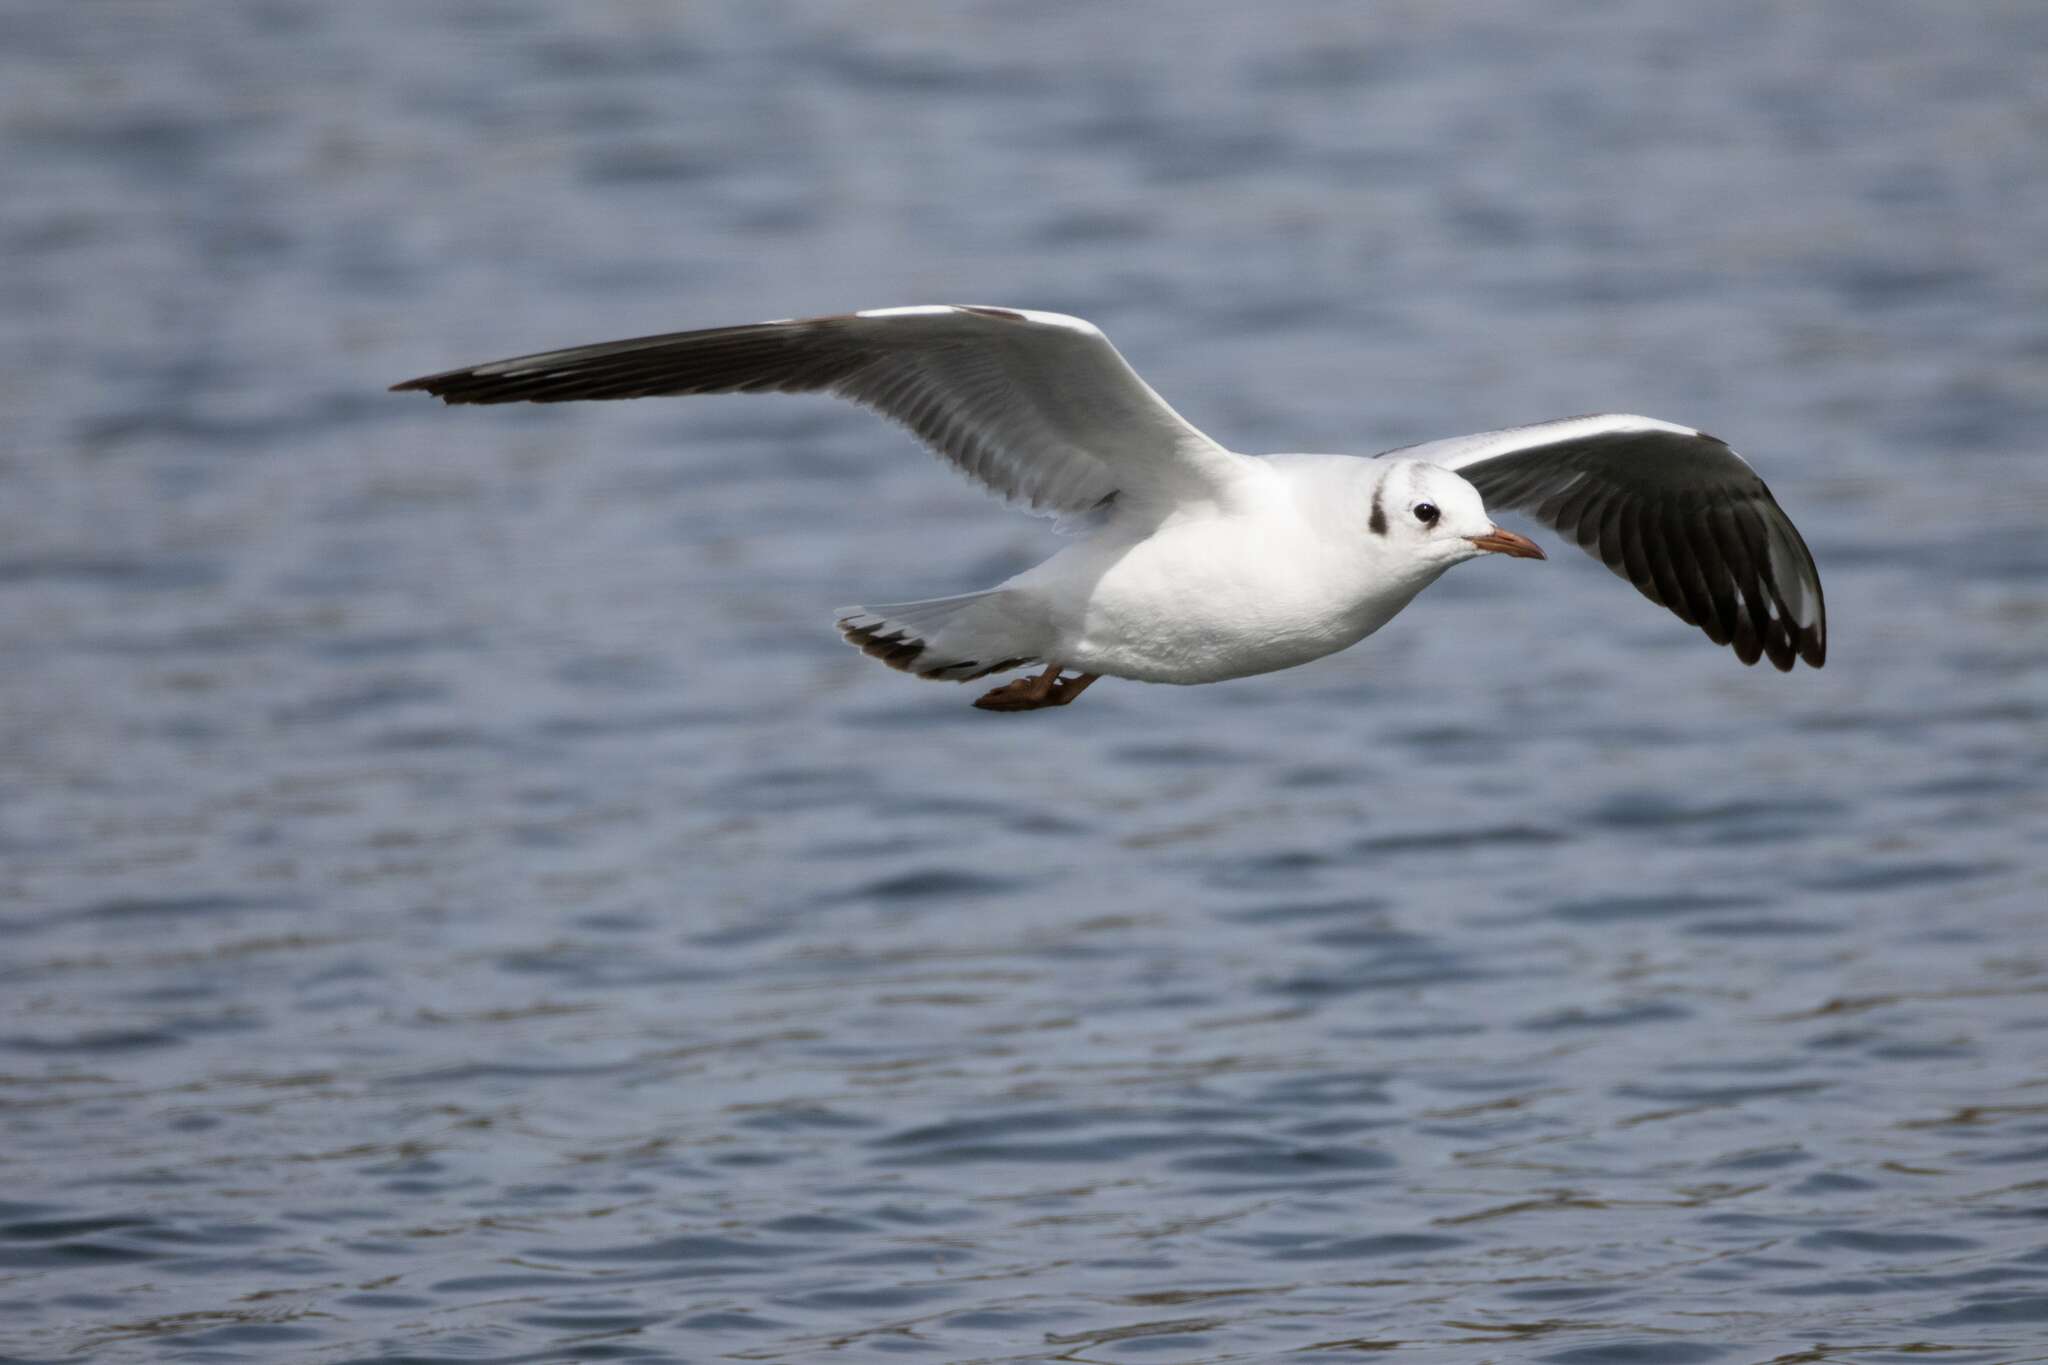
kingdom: Animalia
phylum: Chordata
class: Aves
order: Charadriiformes
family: Laridae
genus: Chroicocephalus
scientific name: Chroicocephalus ridibundus
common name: Black-headed gull
